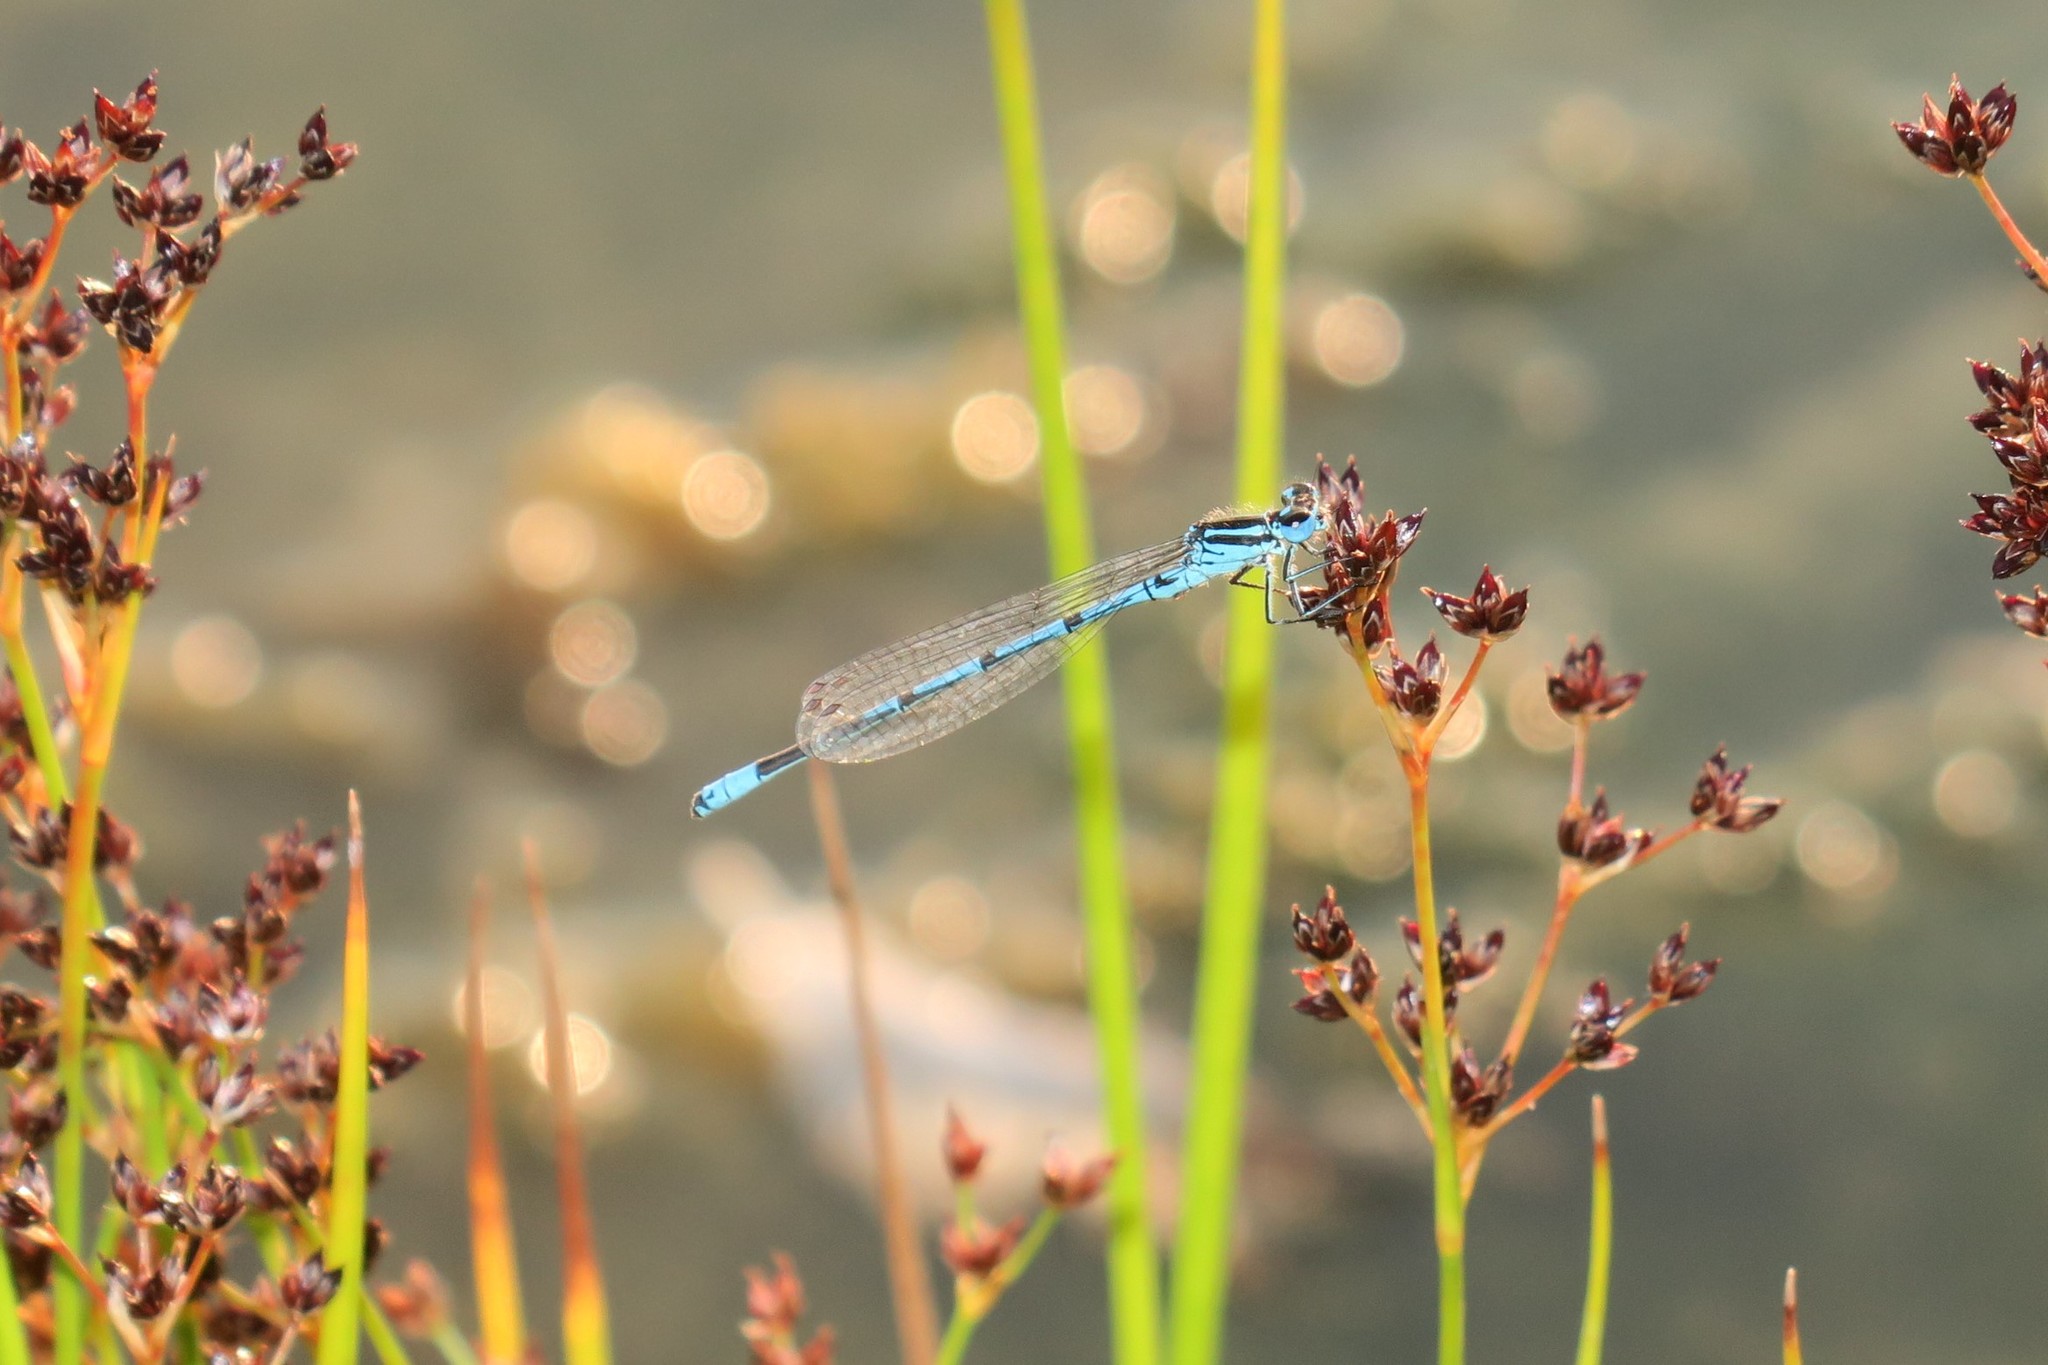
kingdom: Animalia
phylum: Arthropoda
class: Insecta
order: Odonata
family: Coenagrionidae
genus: Coenagrion
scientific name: Coenagrion puella
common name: Azure damselfly
